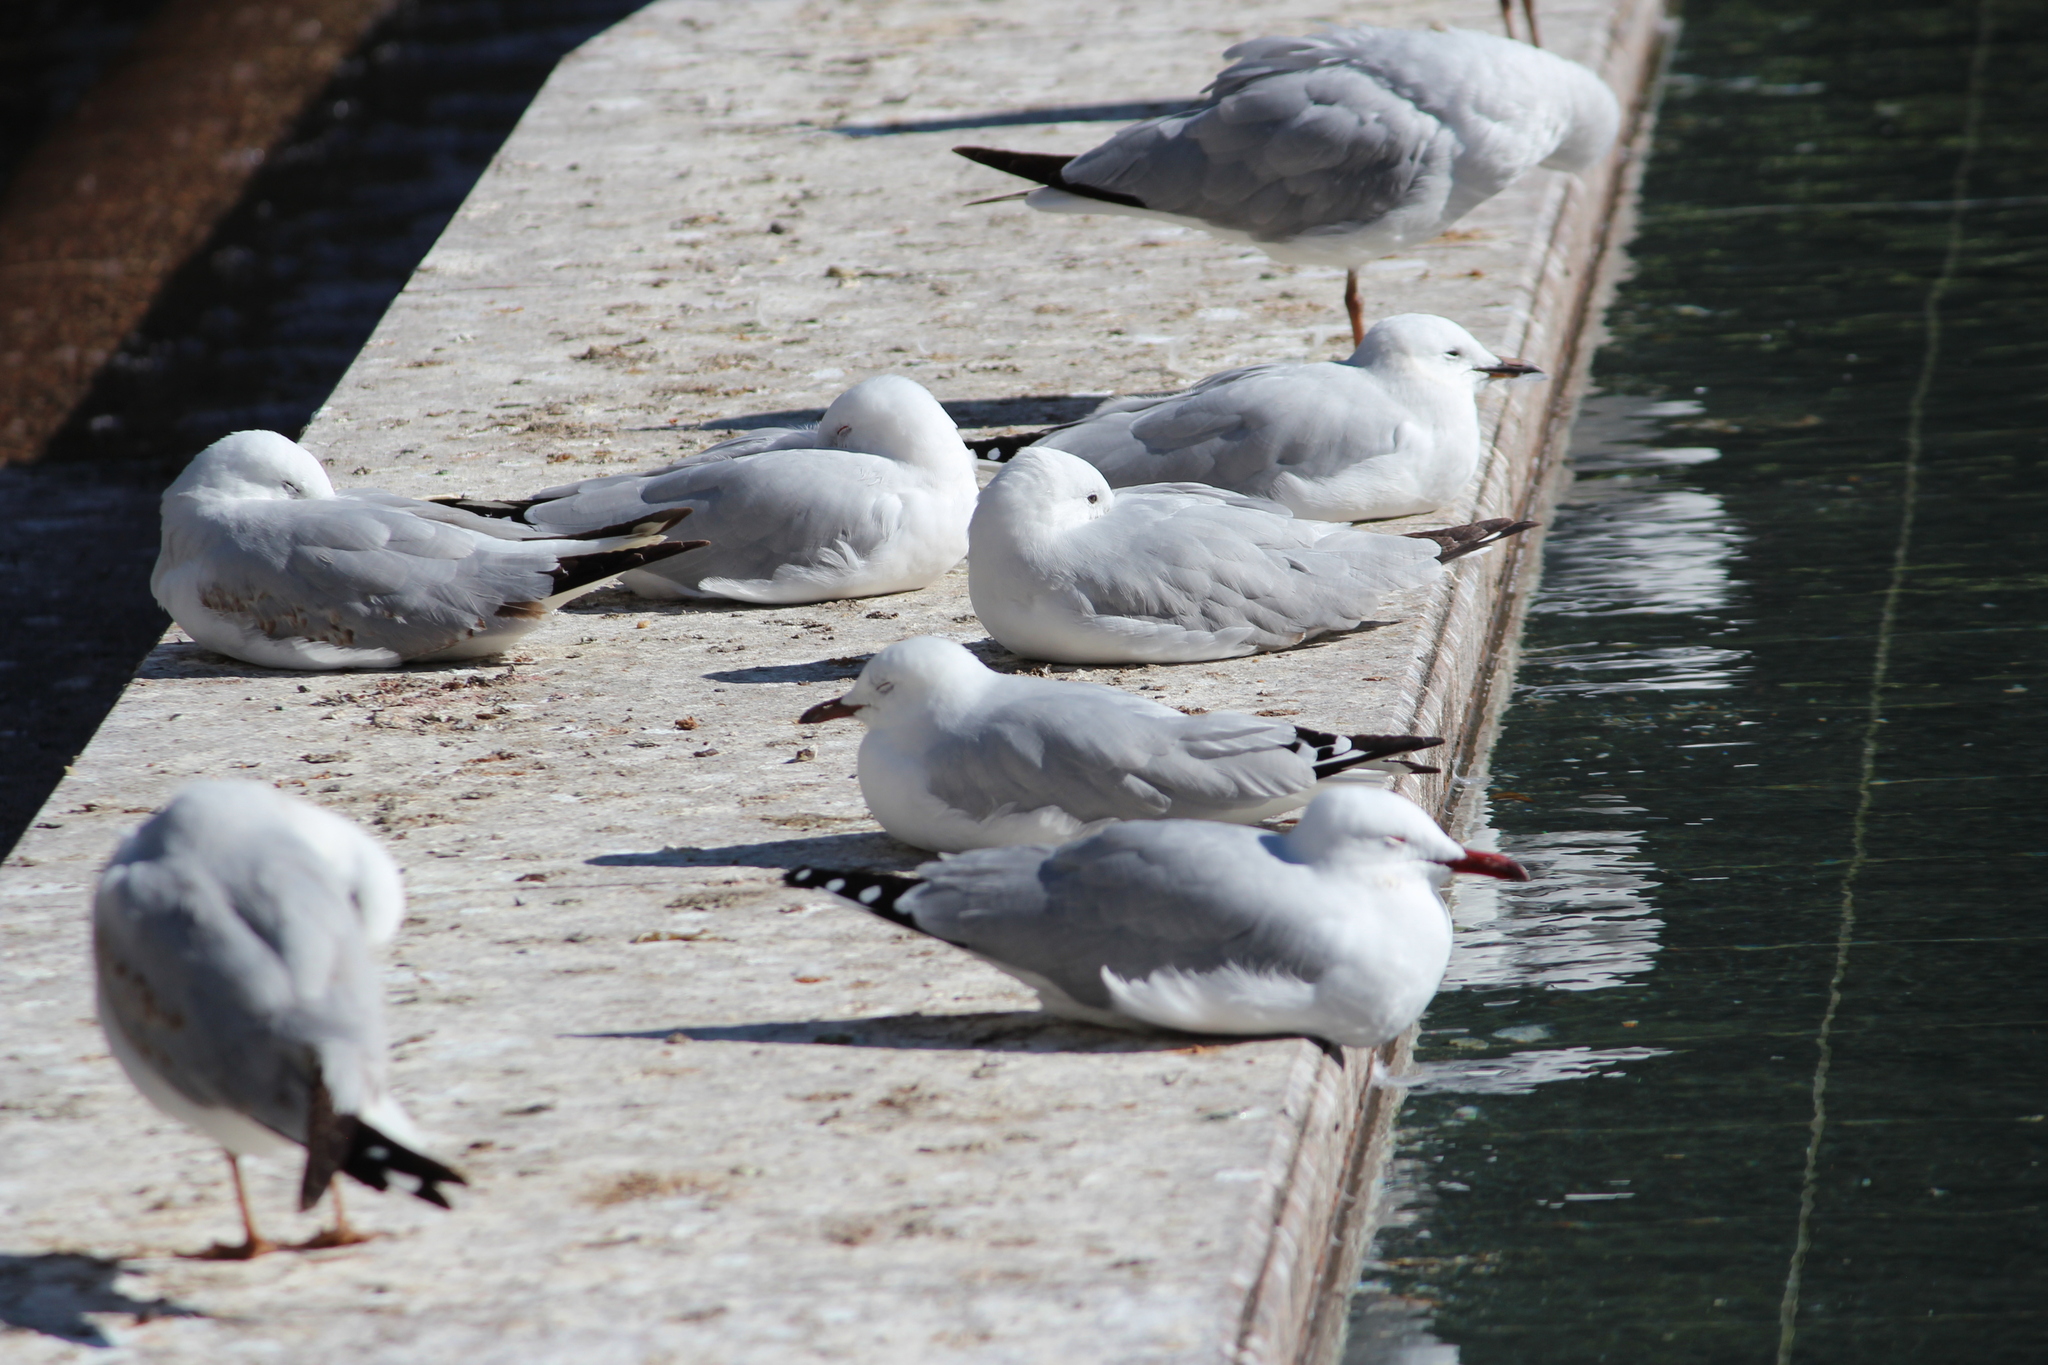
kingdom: Animalia
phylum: Chordata
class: Aves
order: Charadriiformes
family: Laridae
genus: Chroicocephalus
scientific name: Chroicocephalus novaehollandiae
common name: Silver gull
